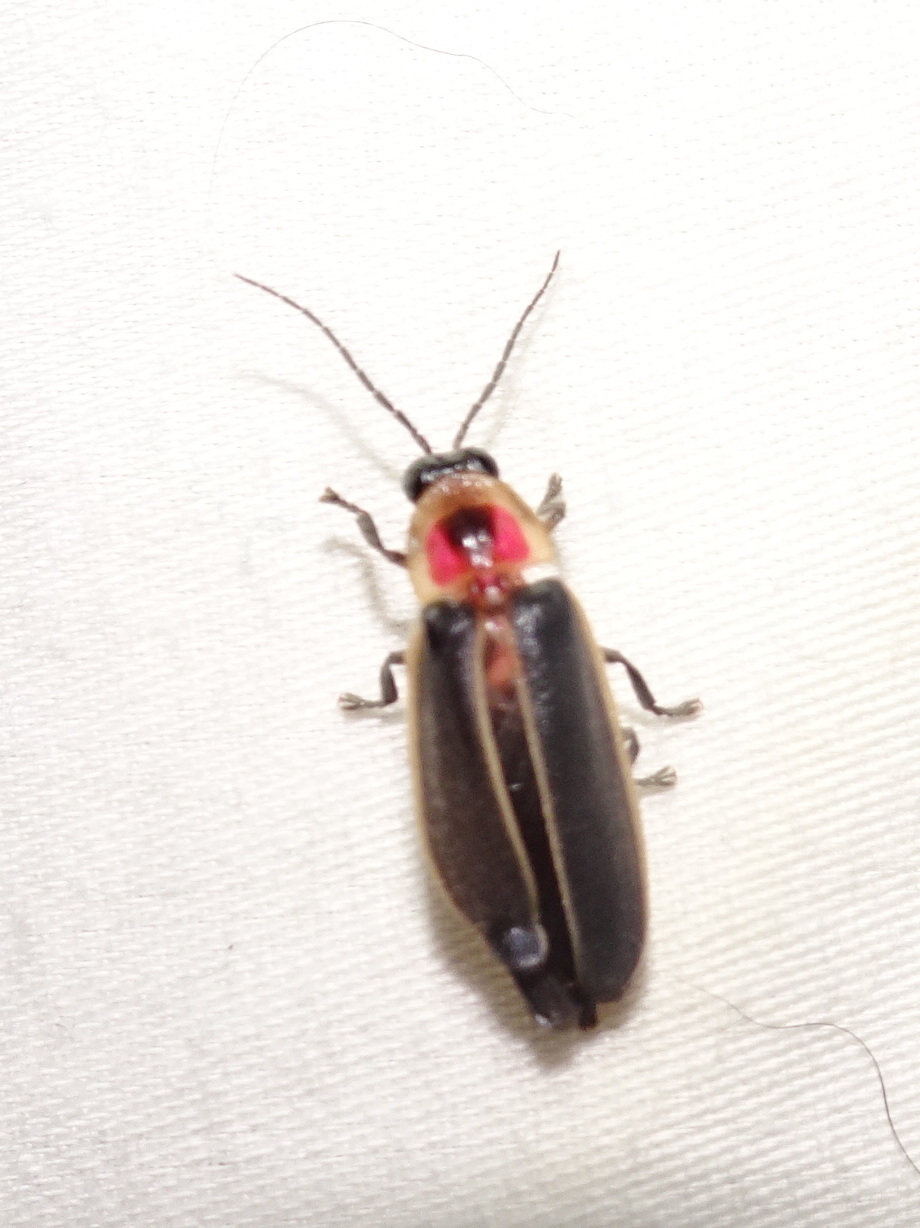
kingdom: Animalia
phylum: Arthropoda
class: Insecta
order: Coleoptera
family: Lampyridae
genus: Photinus
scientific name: Photinus pyralis
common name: Big dipper firefly
